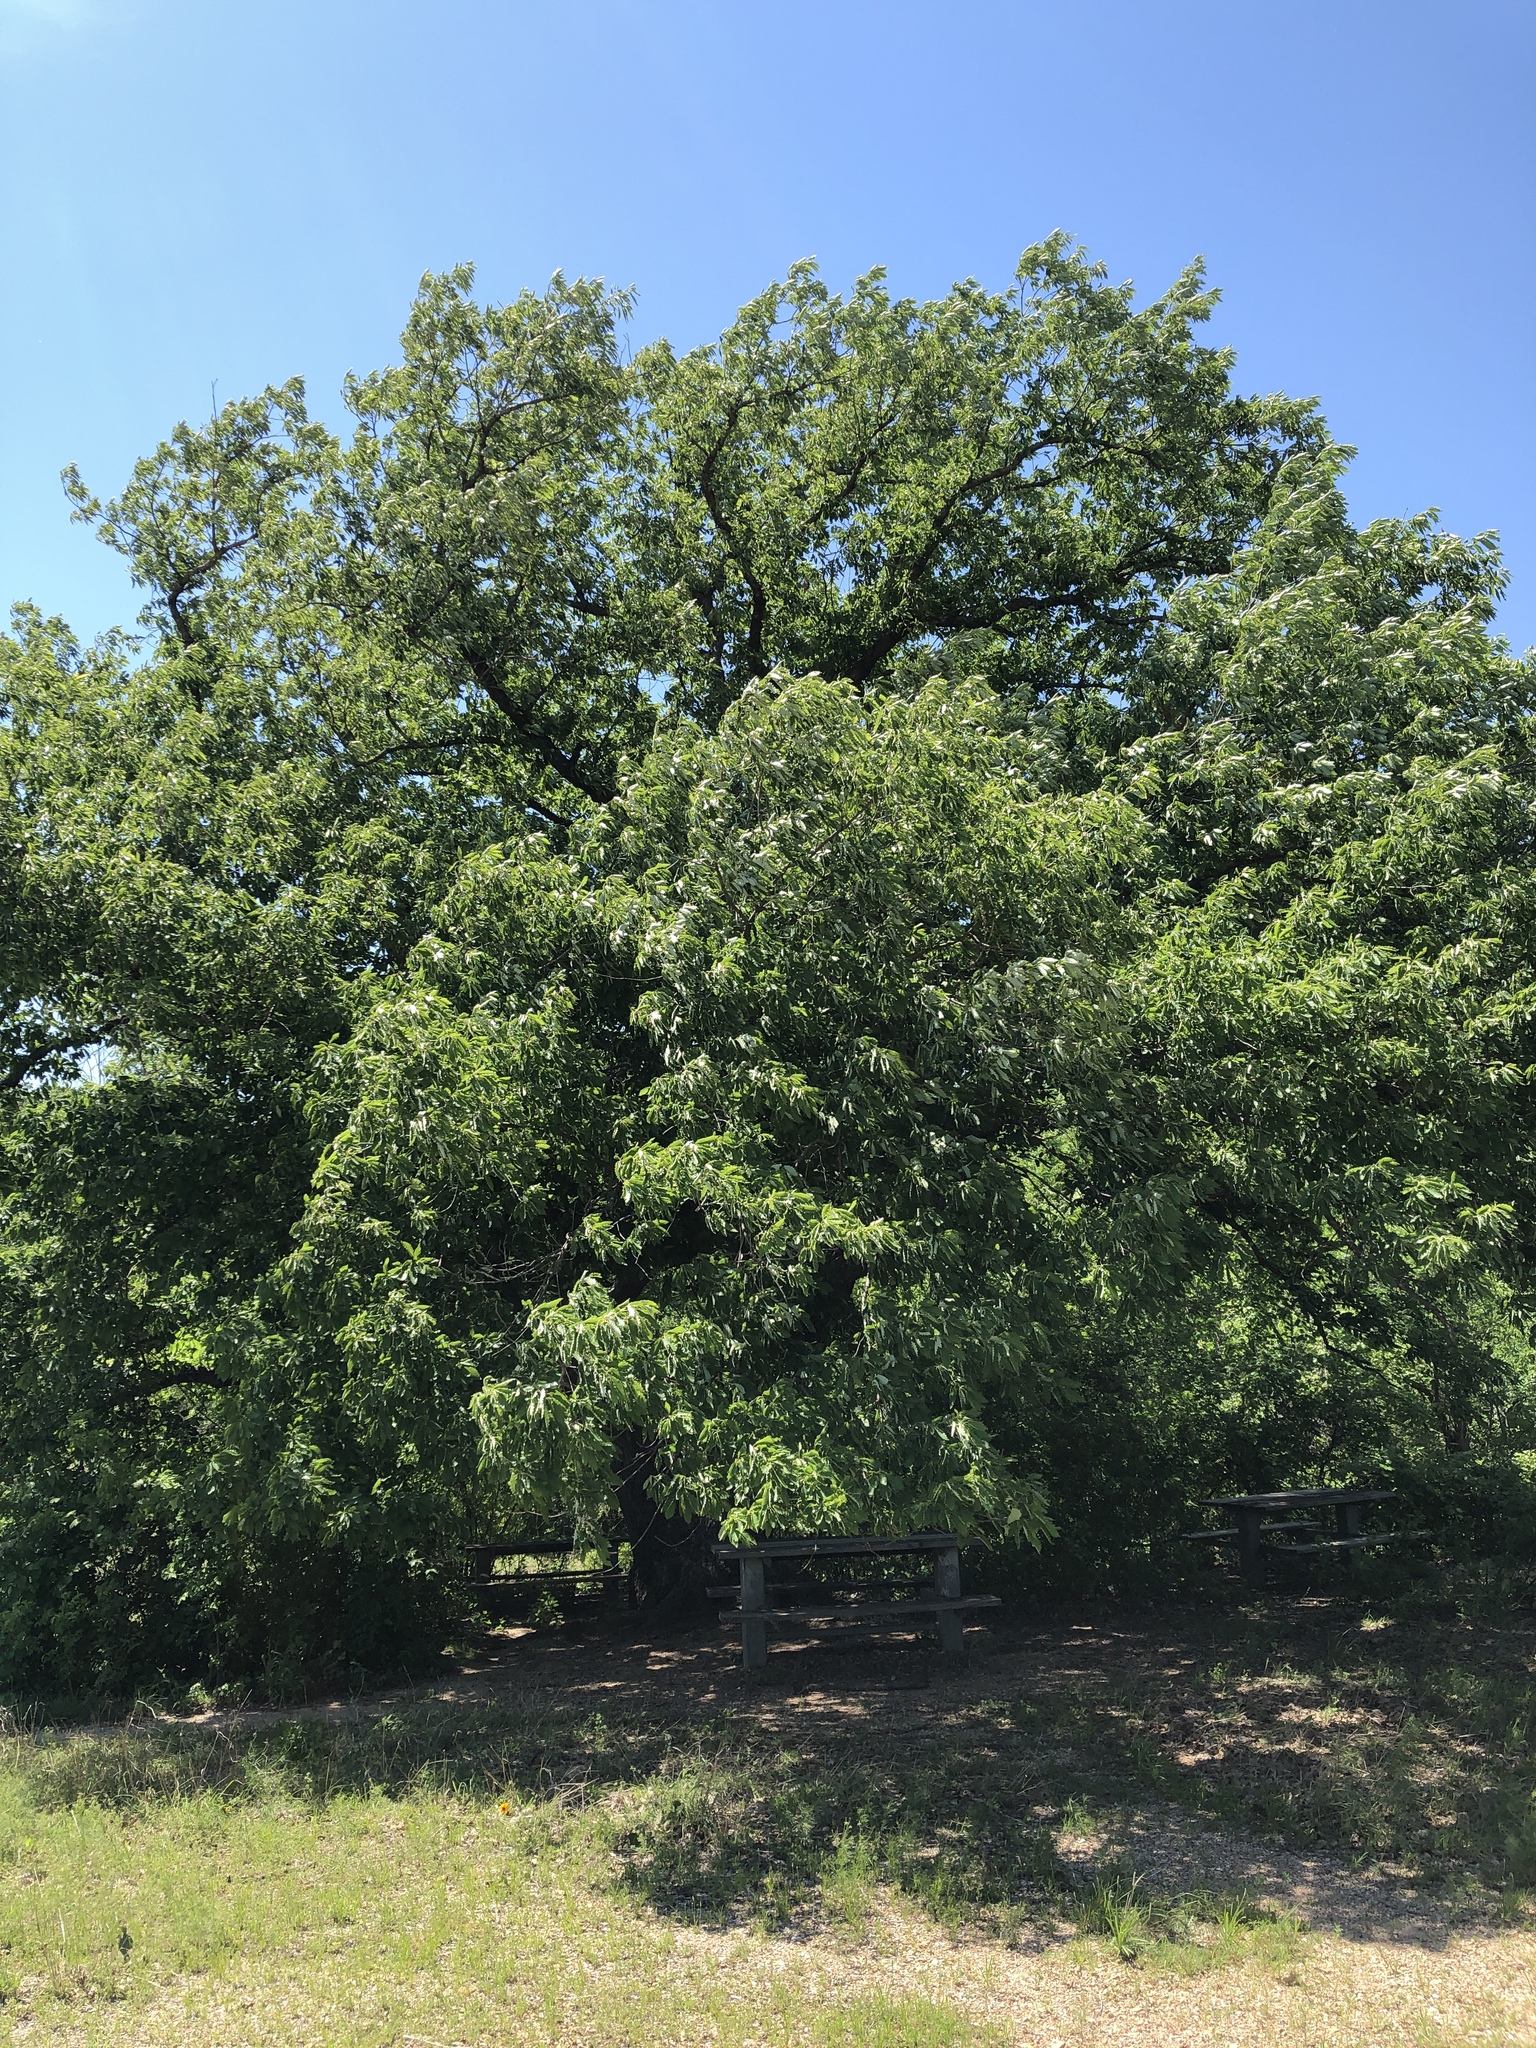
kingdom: Plantae
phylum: Tracheophyta
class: Magnoliopsida
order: Fagales
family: Fagaceae
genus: Quercus
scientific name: Quercus muehlenbergii
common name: Chinkapin oak
